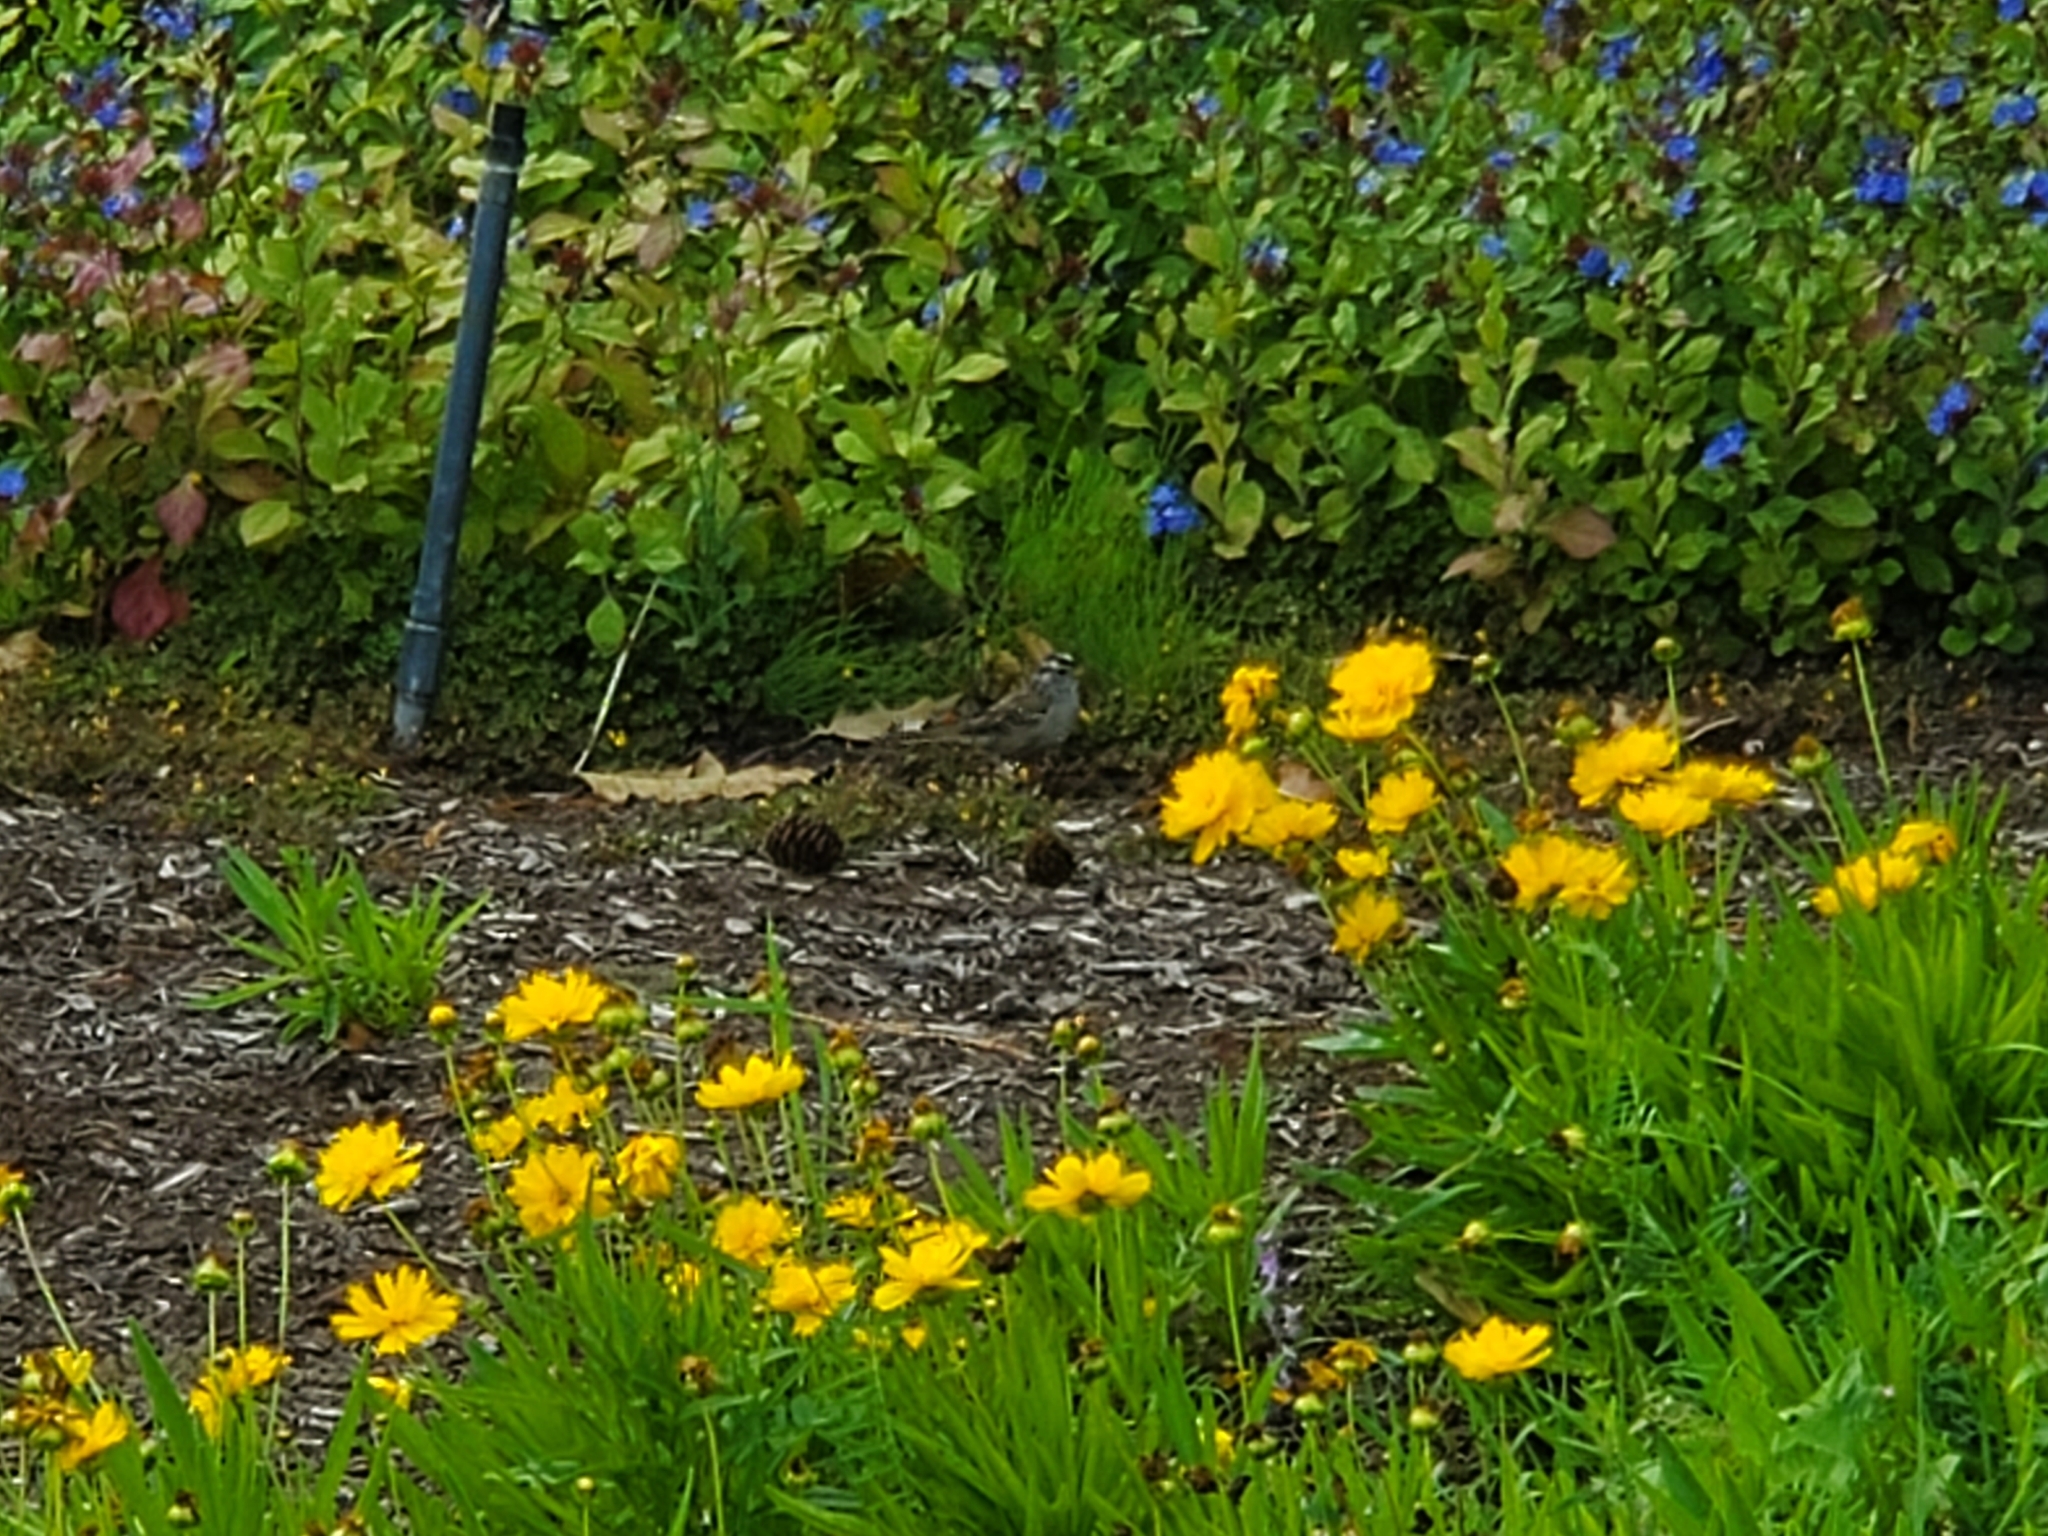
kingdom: Animalia
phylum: Chordata
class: Aves
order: Passeriformes
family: Passerellidae
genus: Zonotrichia
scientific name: Zonotrichia leucophrys
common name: White-crowned sparrow
